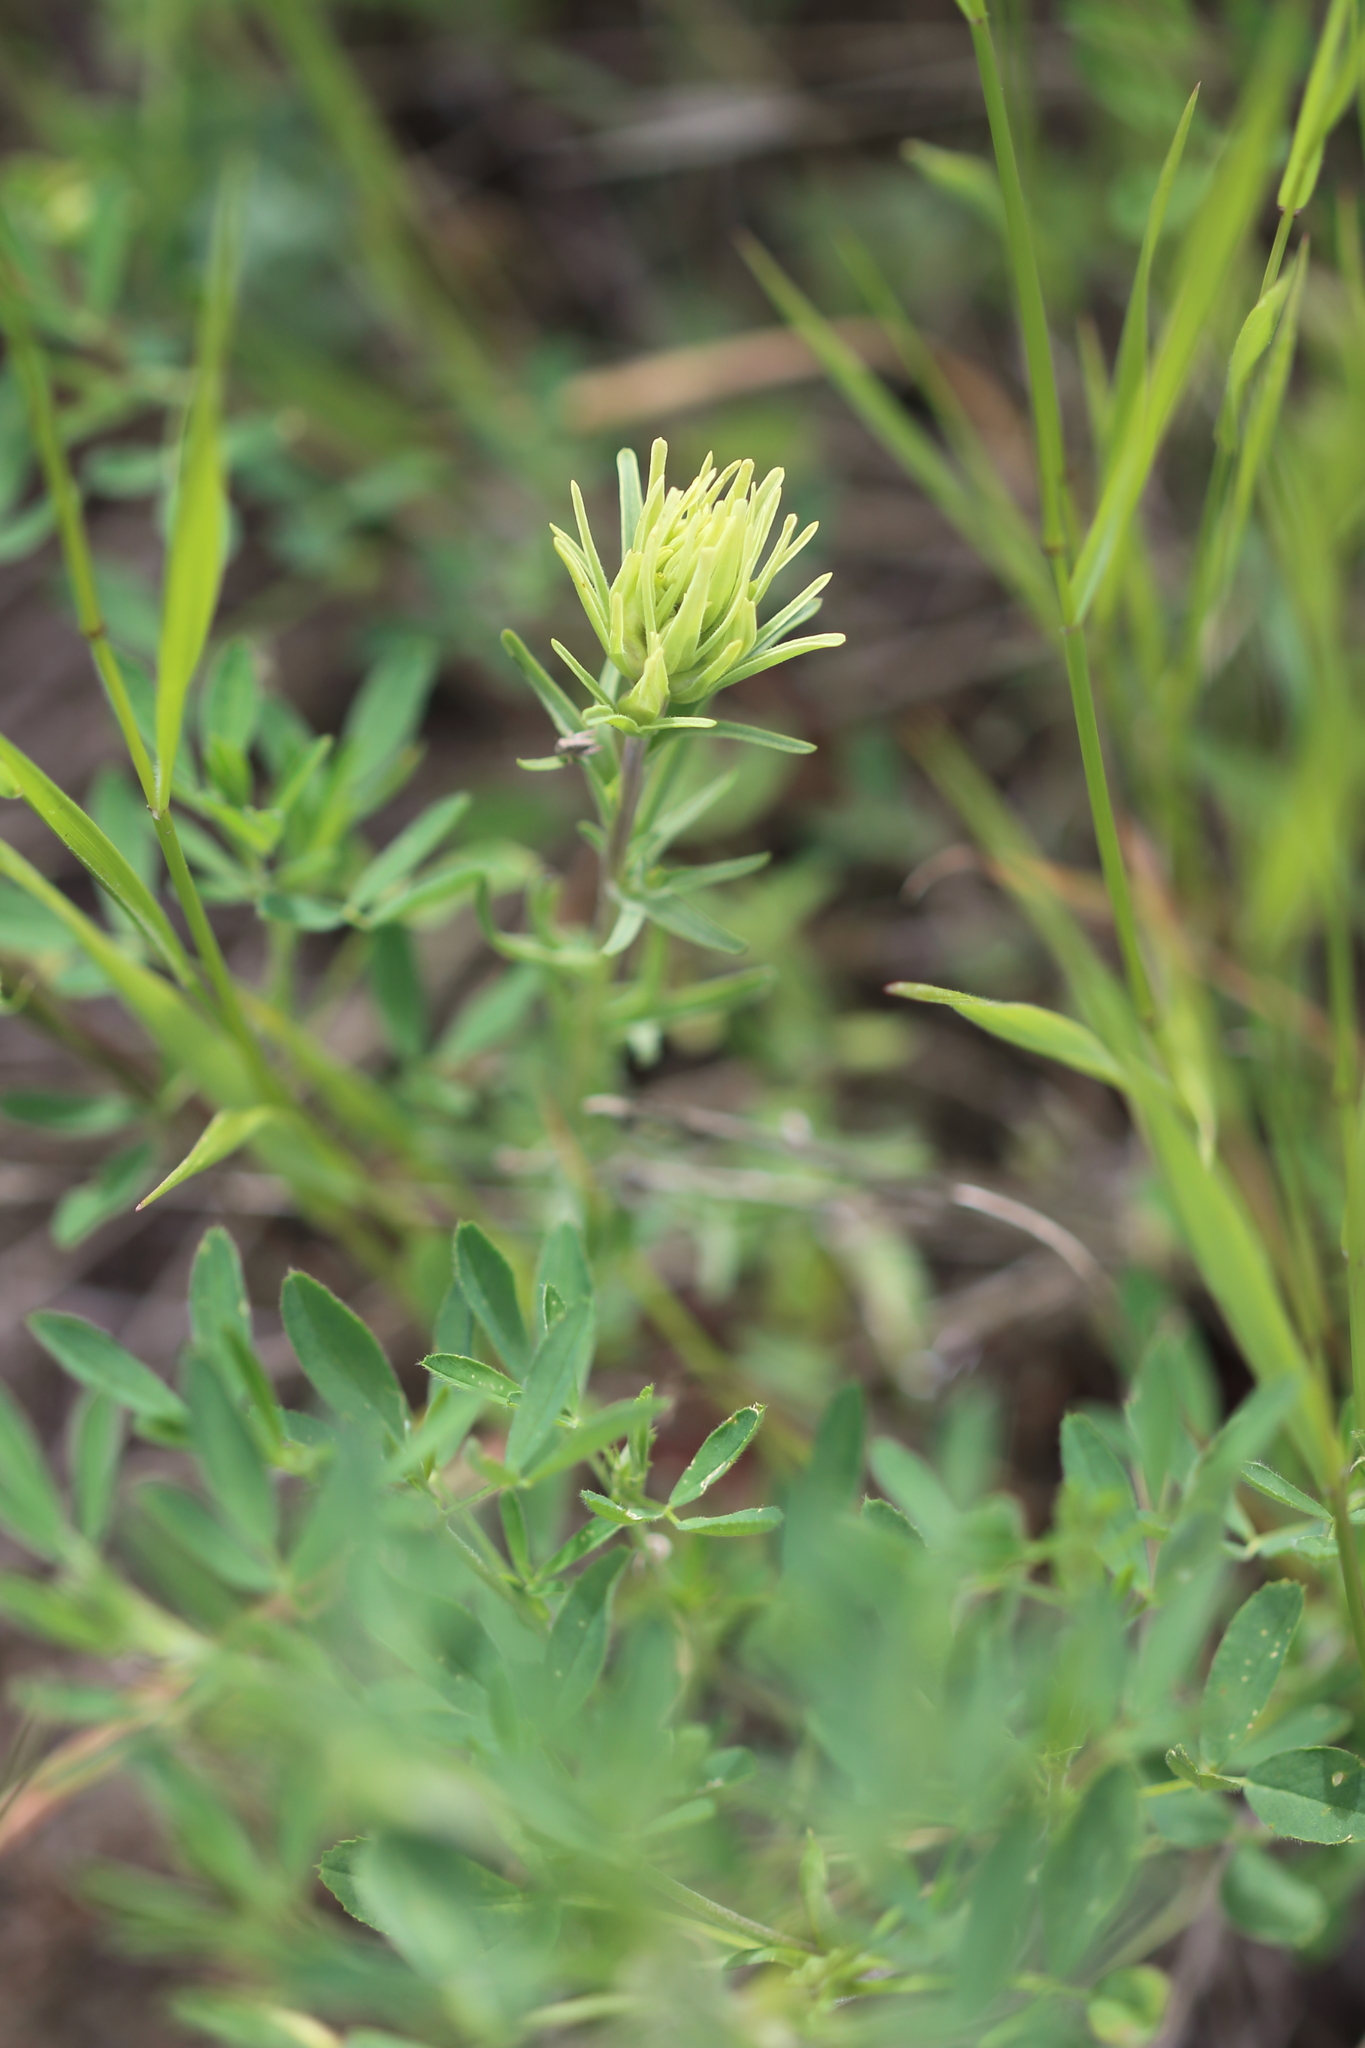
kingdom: Plantae
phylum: Tracheophyta
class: Magnoliopsida
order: Lamiales
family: Orobanchaceae
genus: Castilleja
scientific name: Castilleja thompsonii
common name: Thompson's paintbrush
